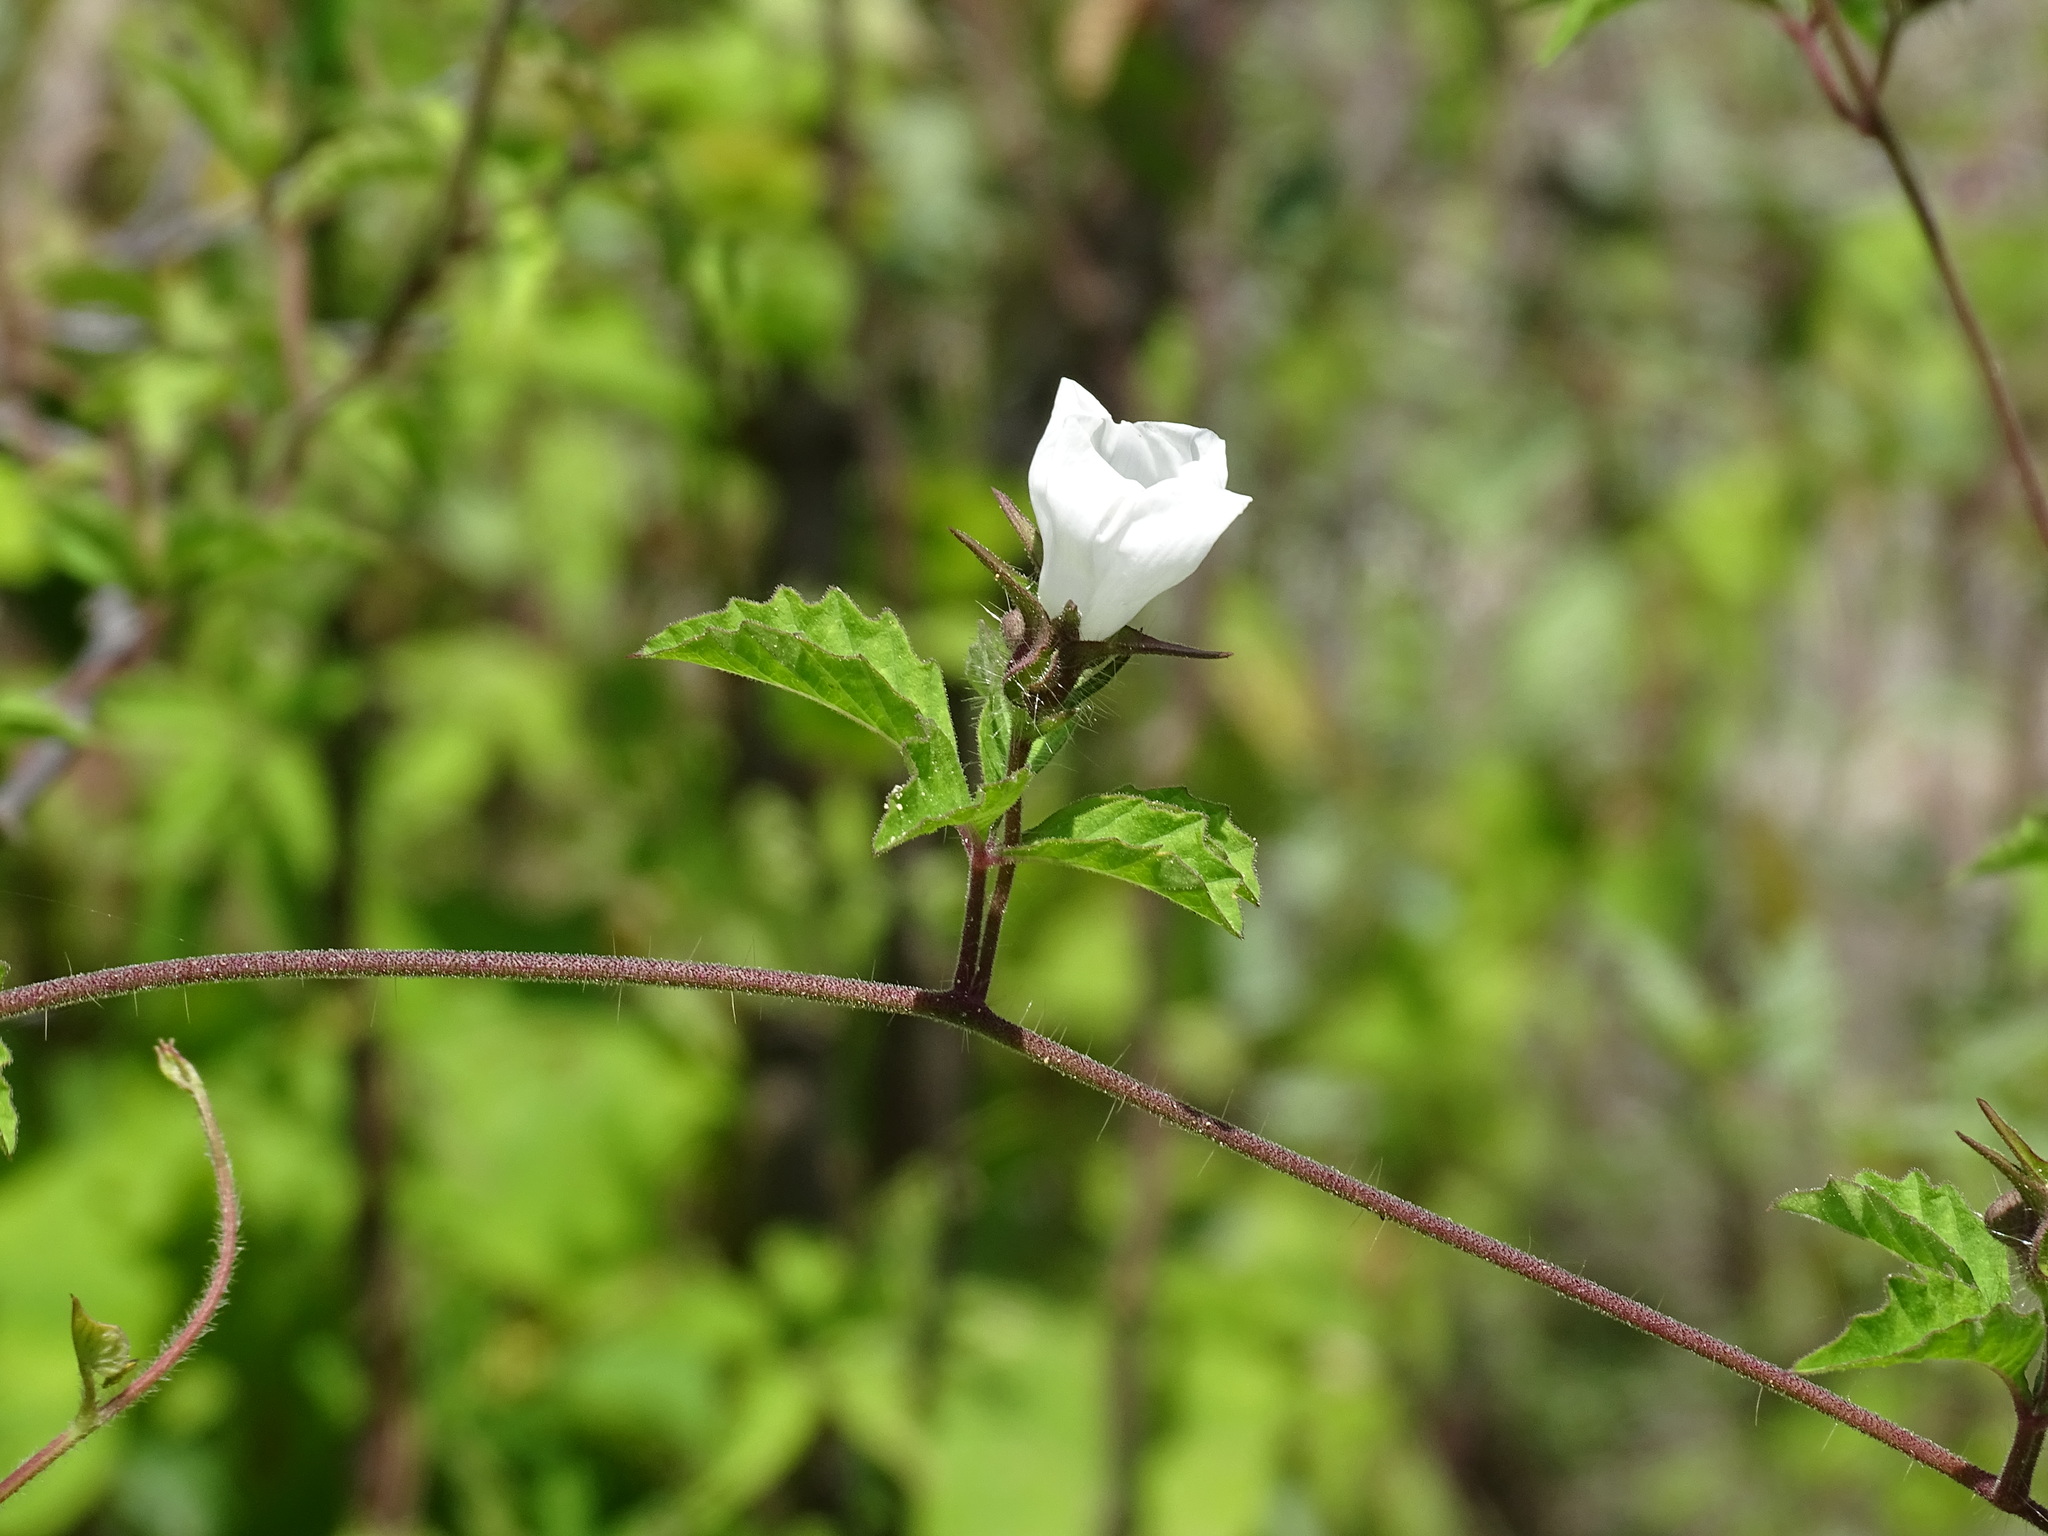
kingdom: Plantae
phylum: Tracheophyta
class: Magnoliopsida
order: Solanales
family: Convolvulaceae
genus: Distimake
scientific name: Distimake cissoides
